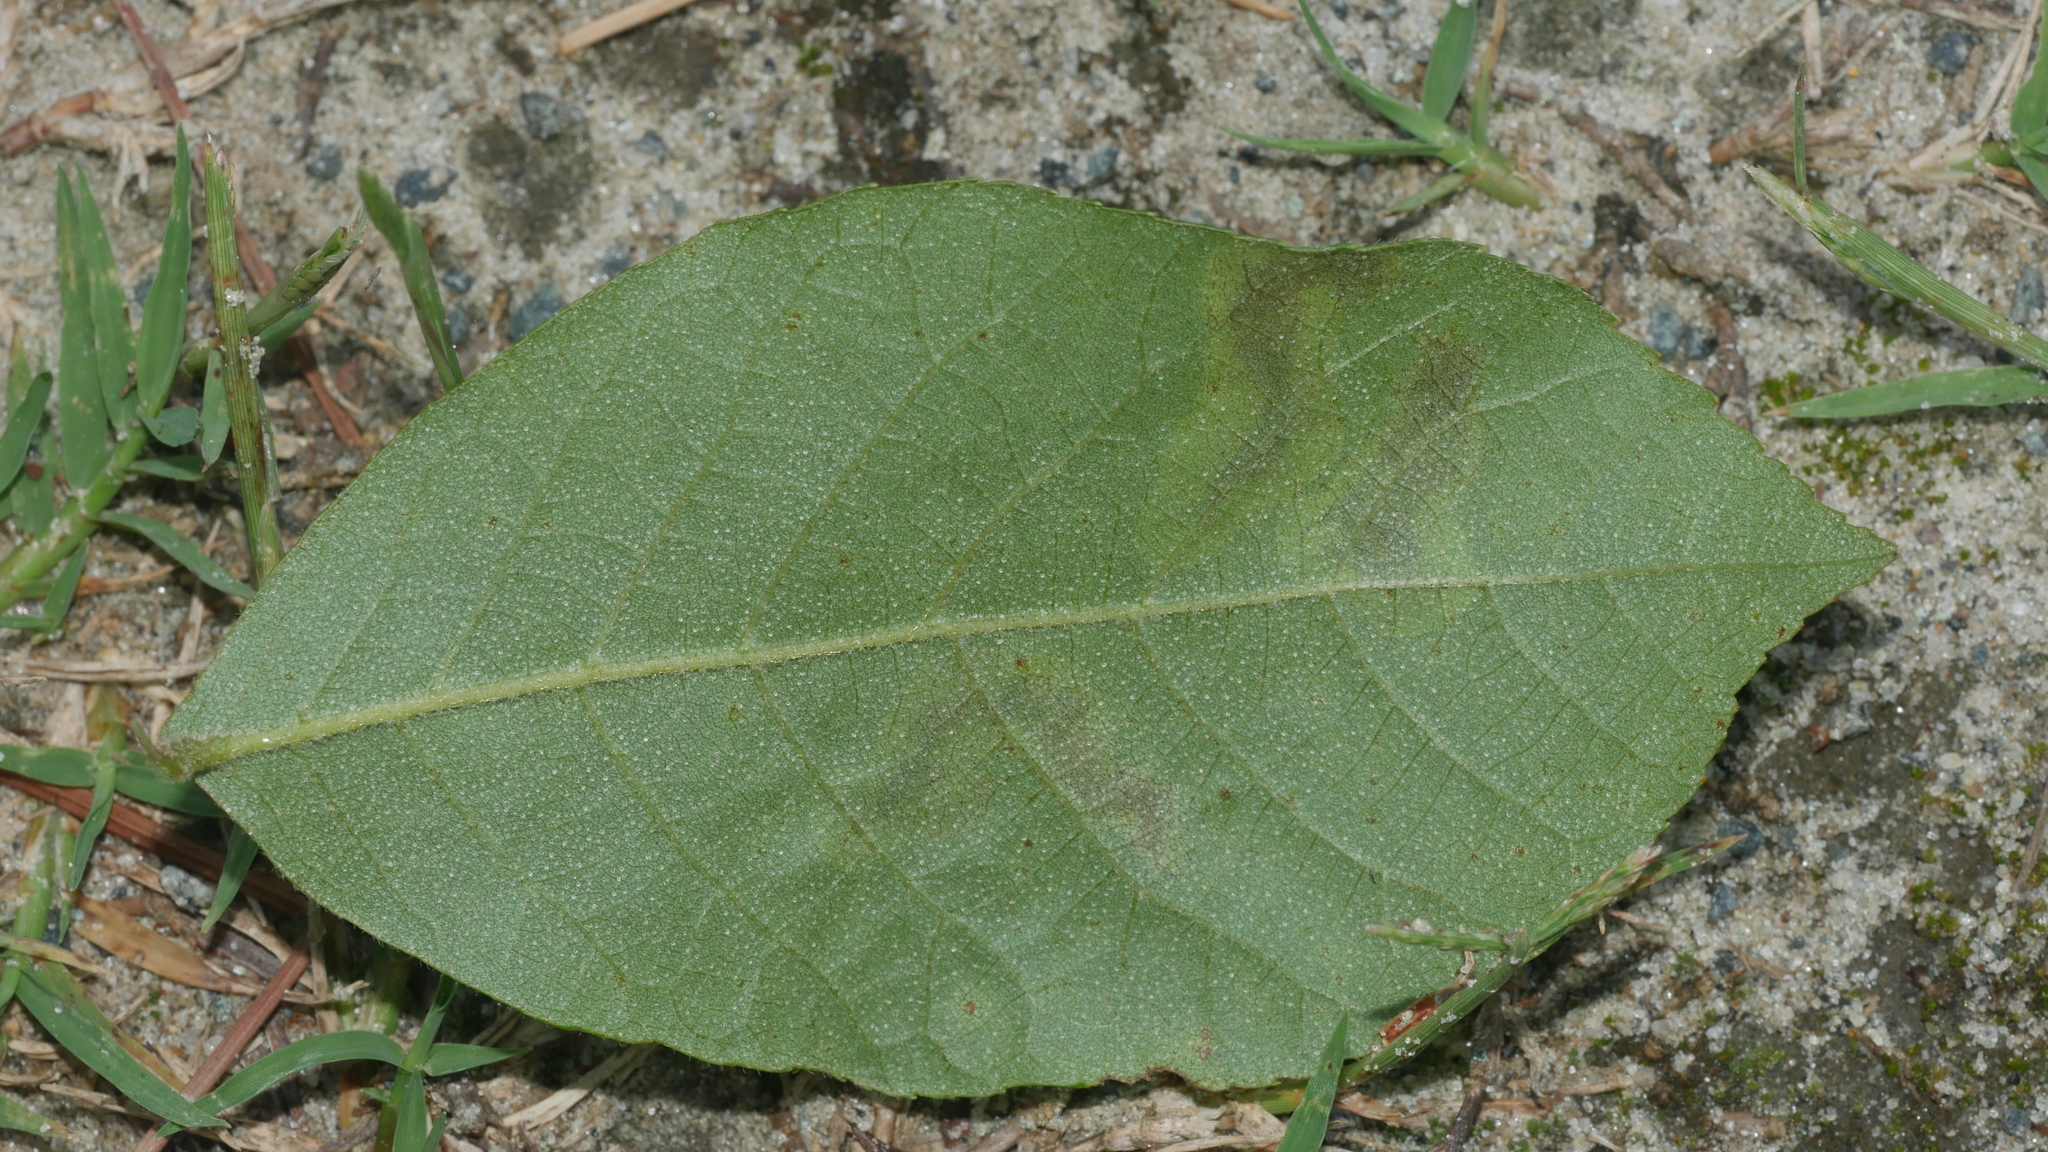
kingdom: Animalia
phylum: Arthropoda
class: Insecta
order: Lepidoptera
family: Gracillariidae
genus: Cameraria
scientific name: Cameraria caryaefoliella
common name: Pecan leafminer moth
